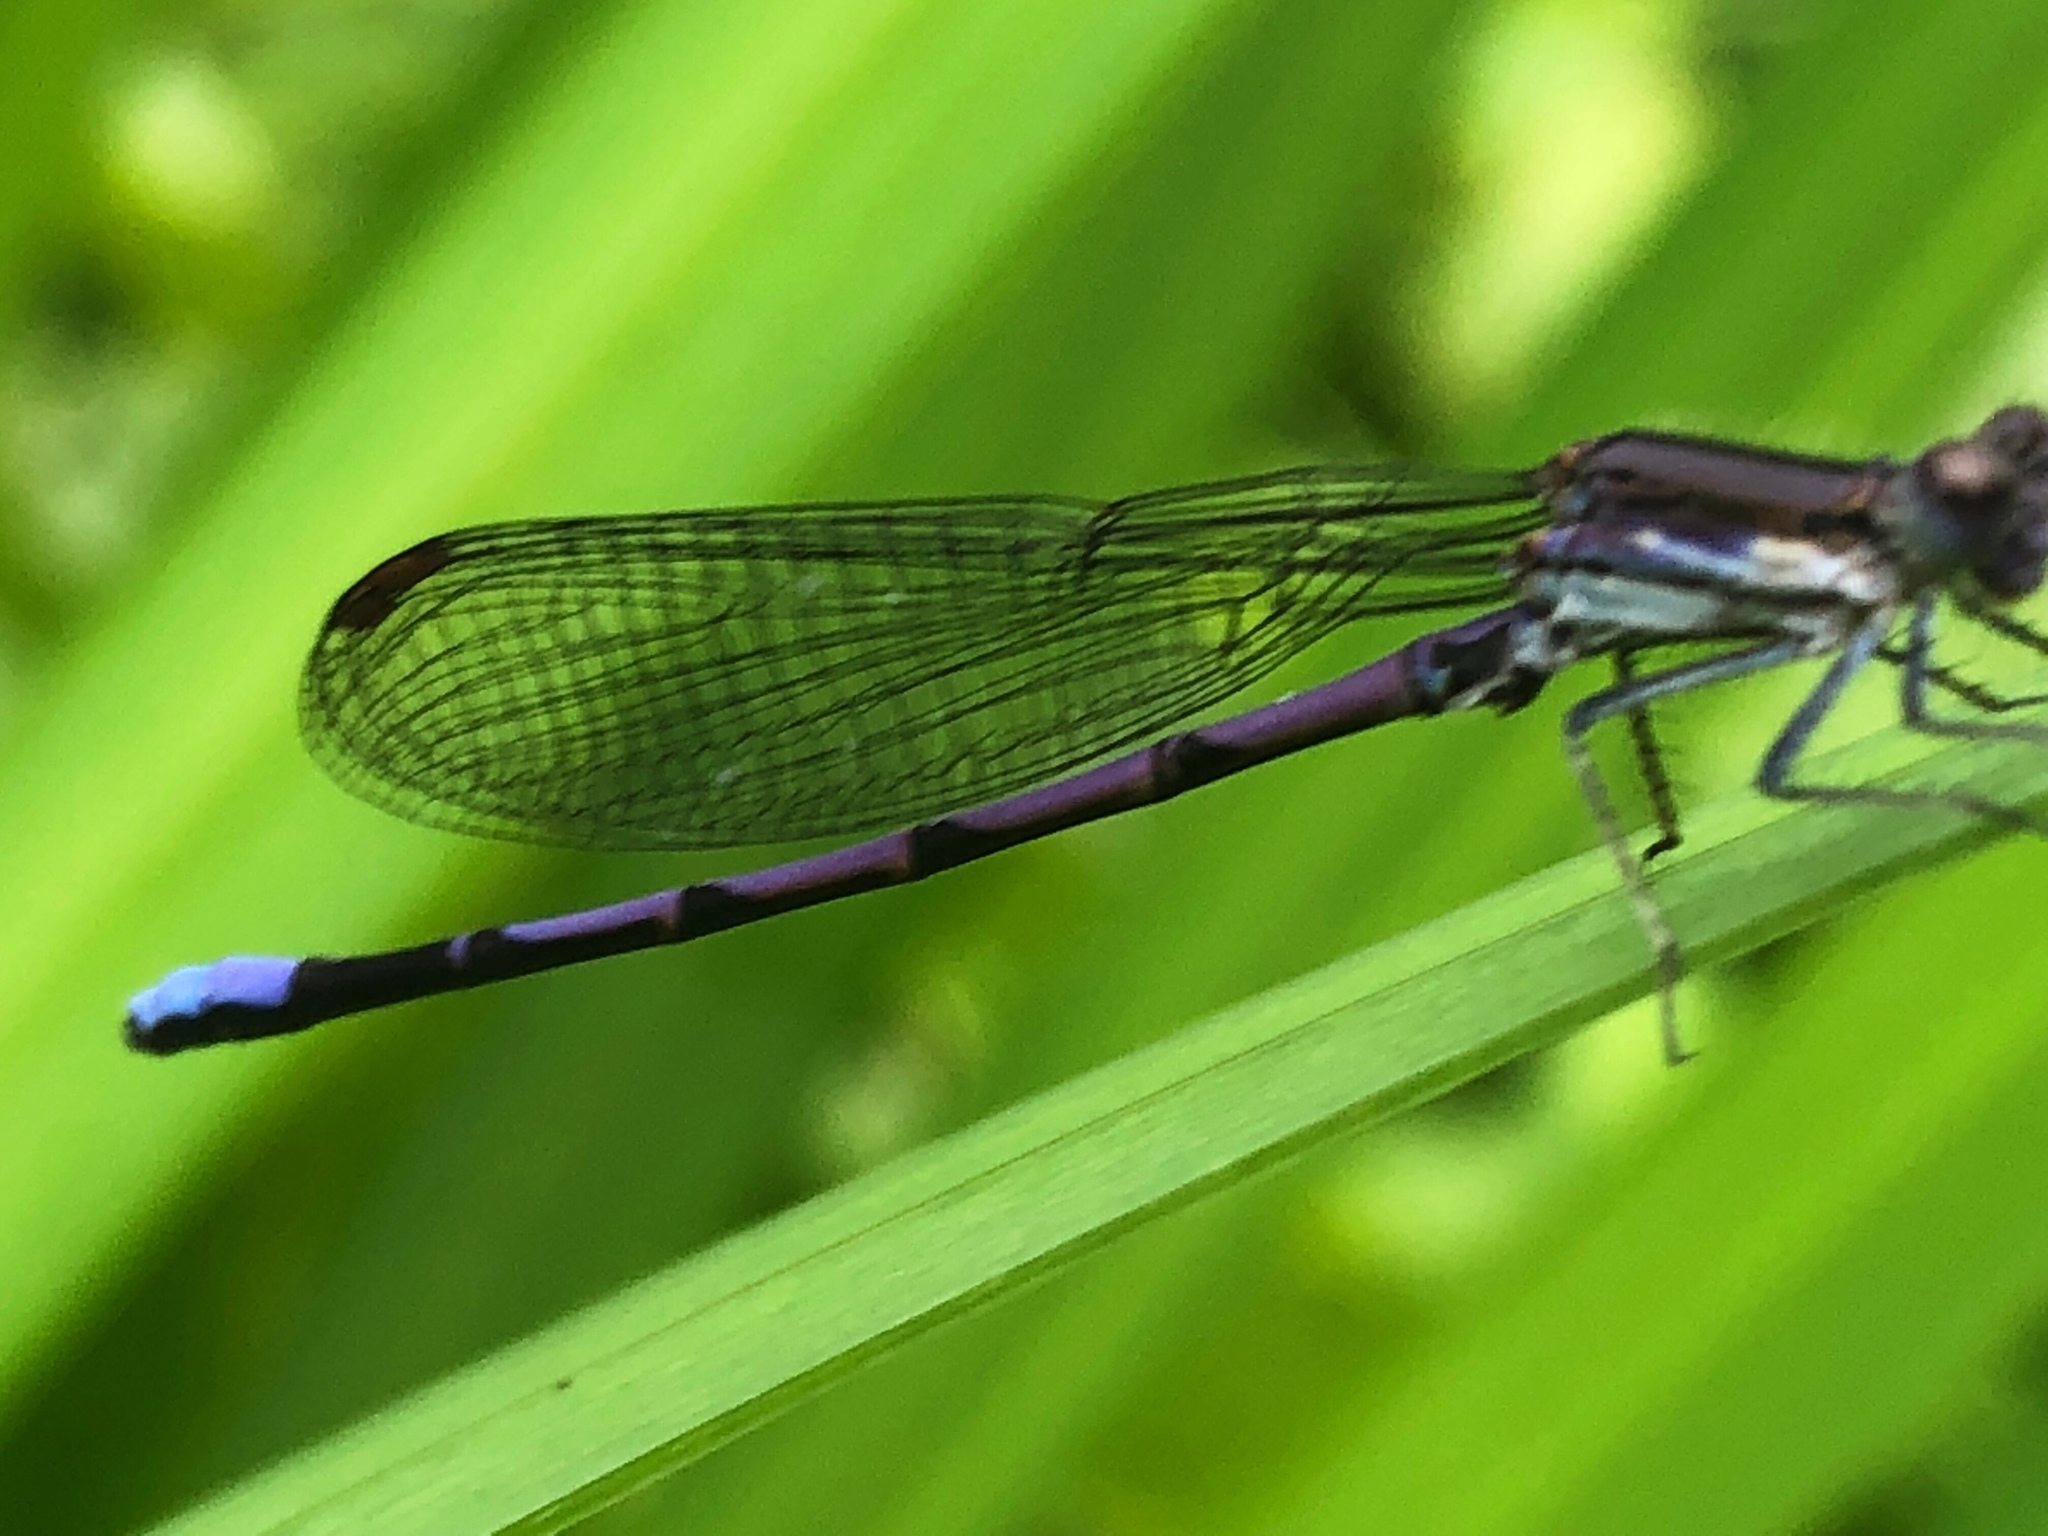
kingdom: Animalia
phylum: Arthropoda
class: Insecta
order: Odonata
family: Coenagrionidae
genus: Argia
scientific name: Argia fumipennis
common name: Variable dancer
